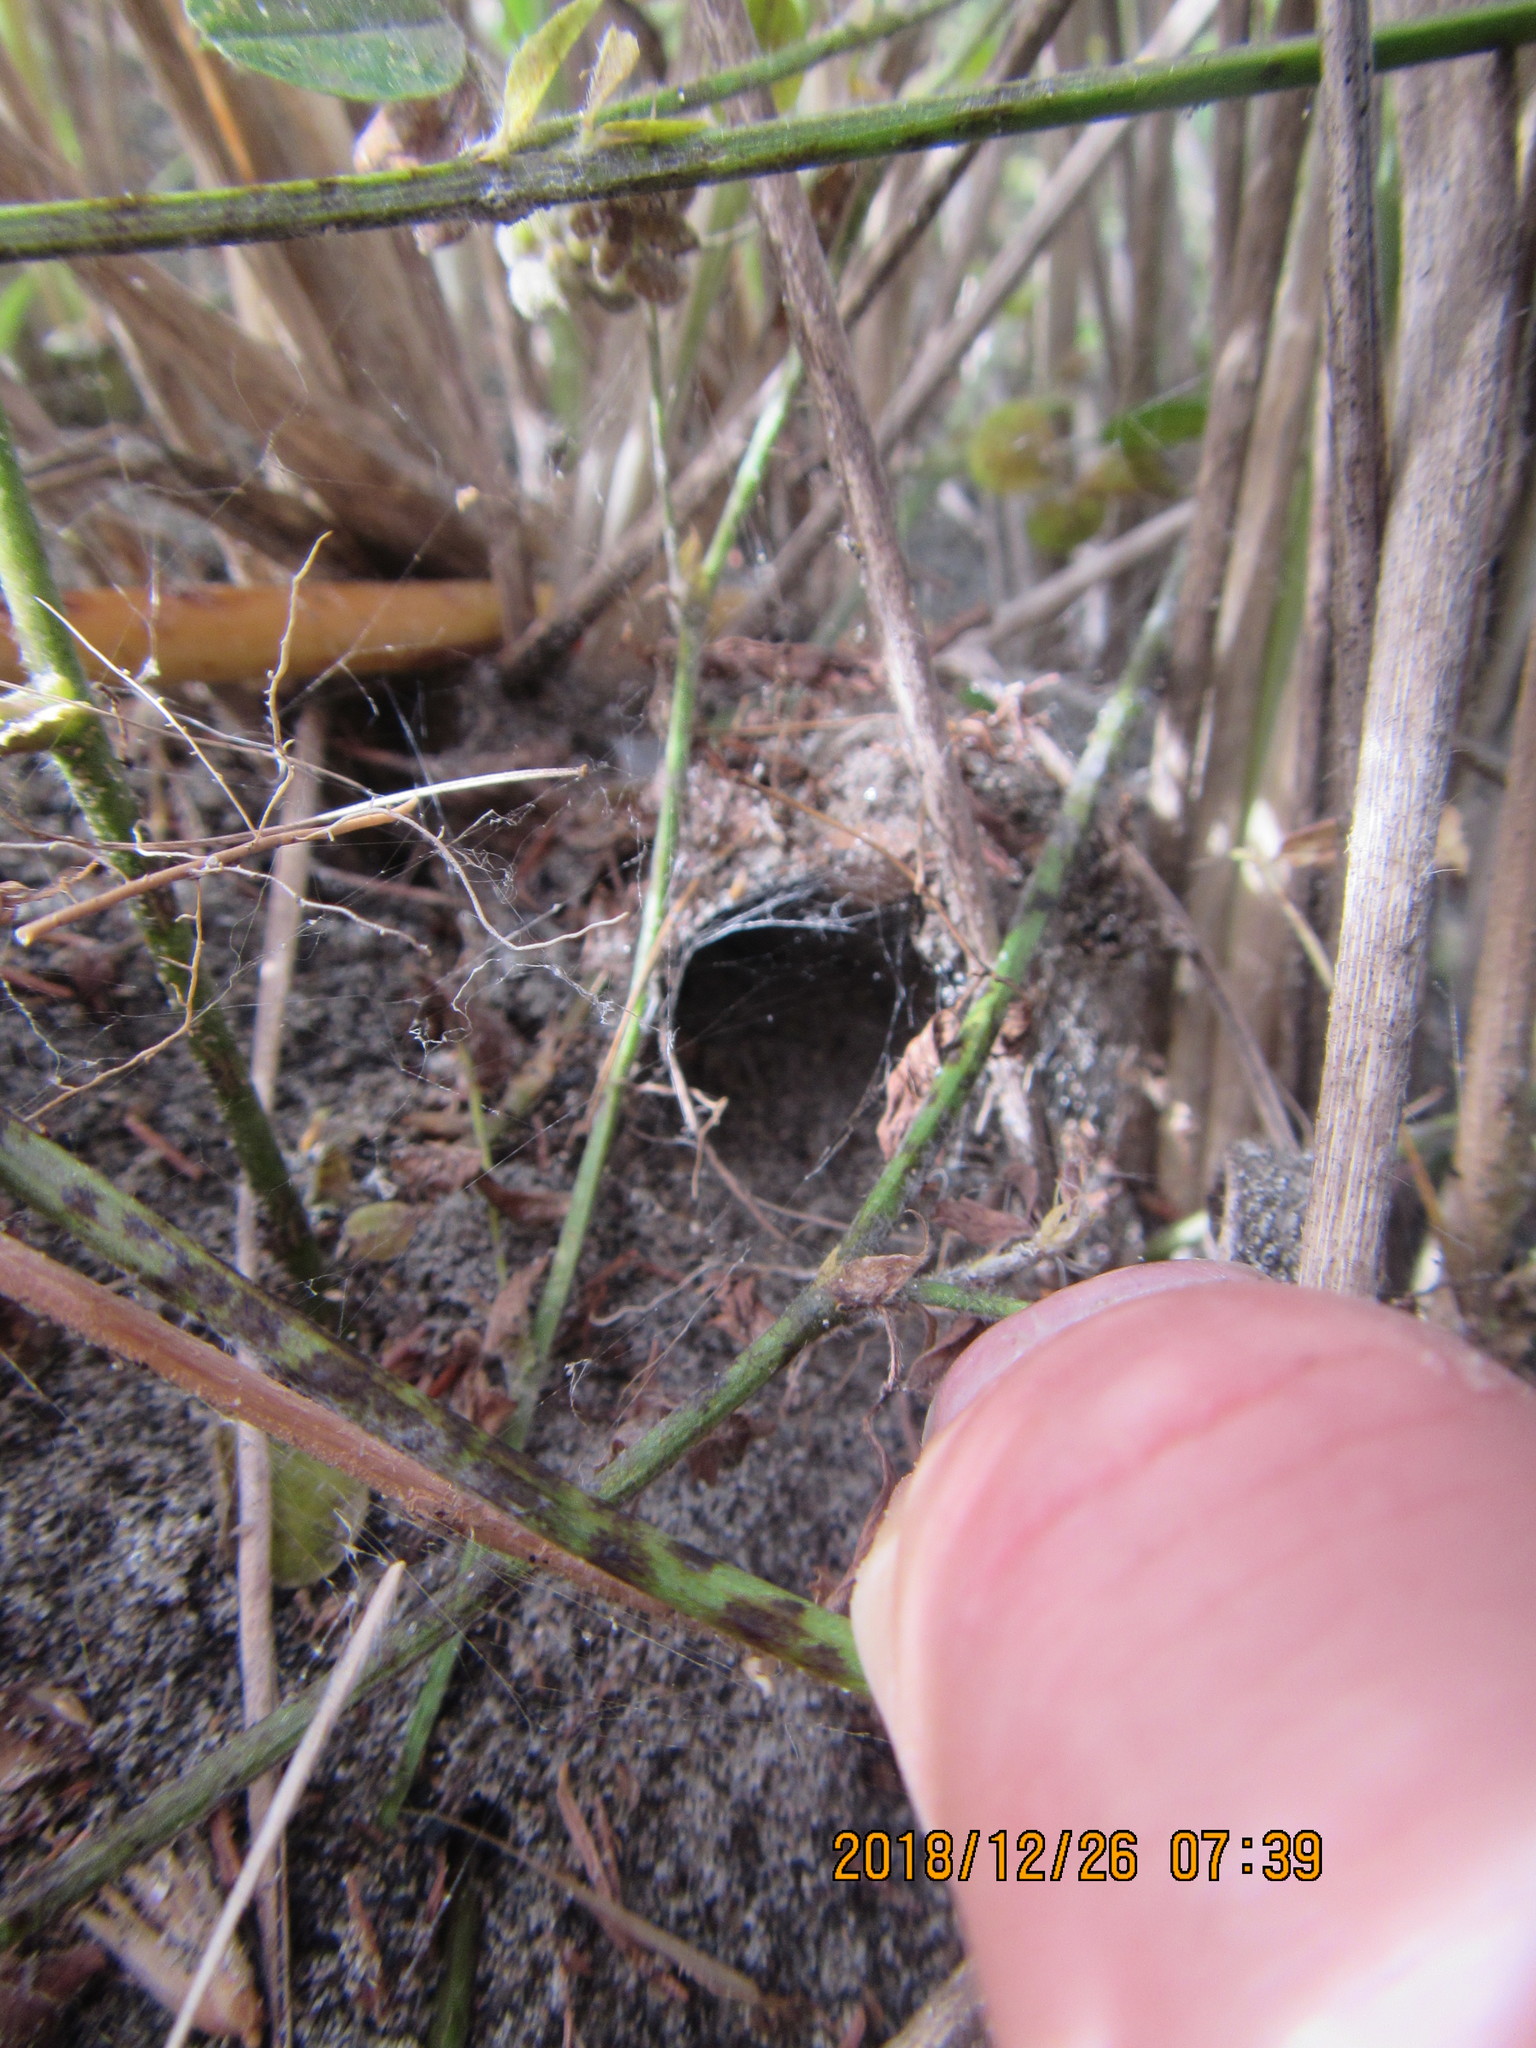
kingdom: Animalia
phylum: Arthropoda
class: Arachnida
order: Araneae
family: Theridiidae
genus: Latrodectus
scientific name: Latrodectus katipo
